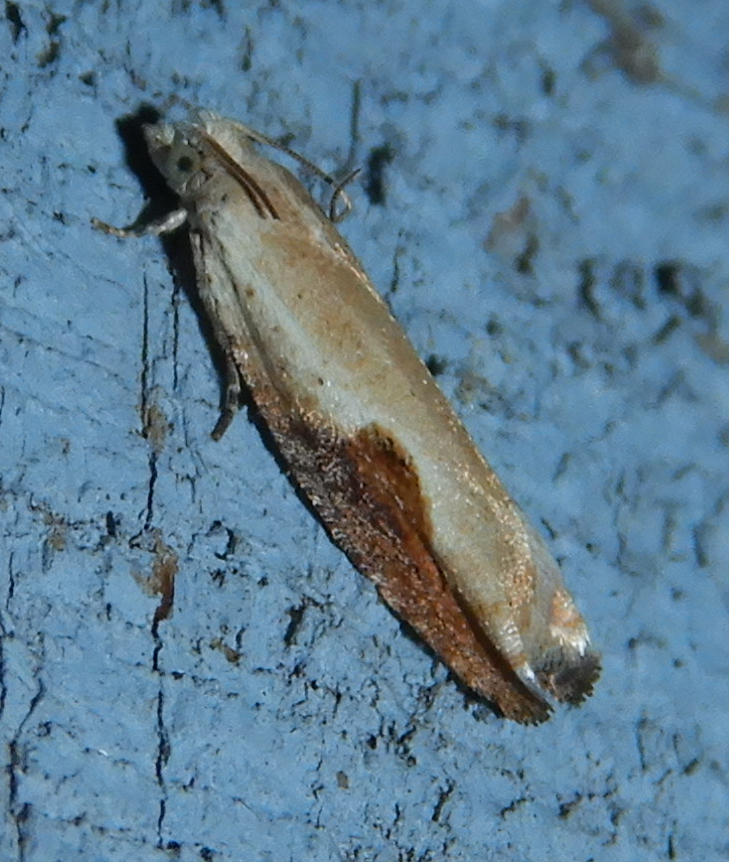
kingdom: Animalia
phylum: Arthropoda
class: Insecta
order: Lepidoptera
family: Tortricidae
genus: Pseudexentera
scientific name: Pseudexentera costomaculana
